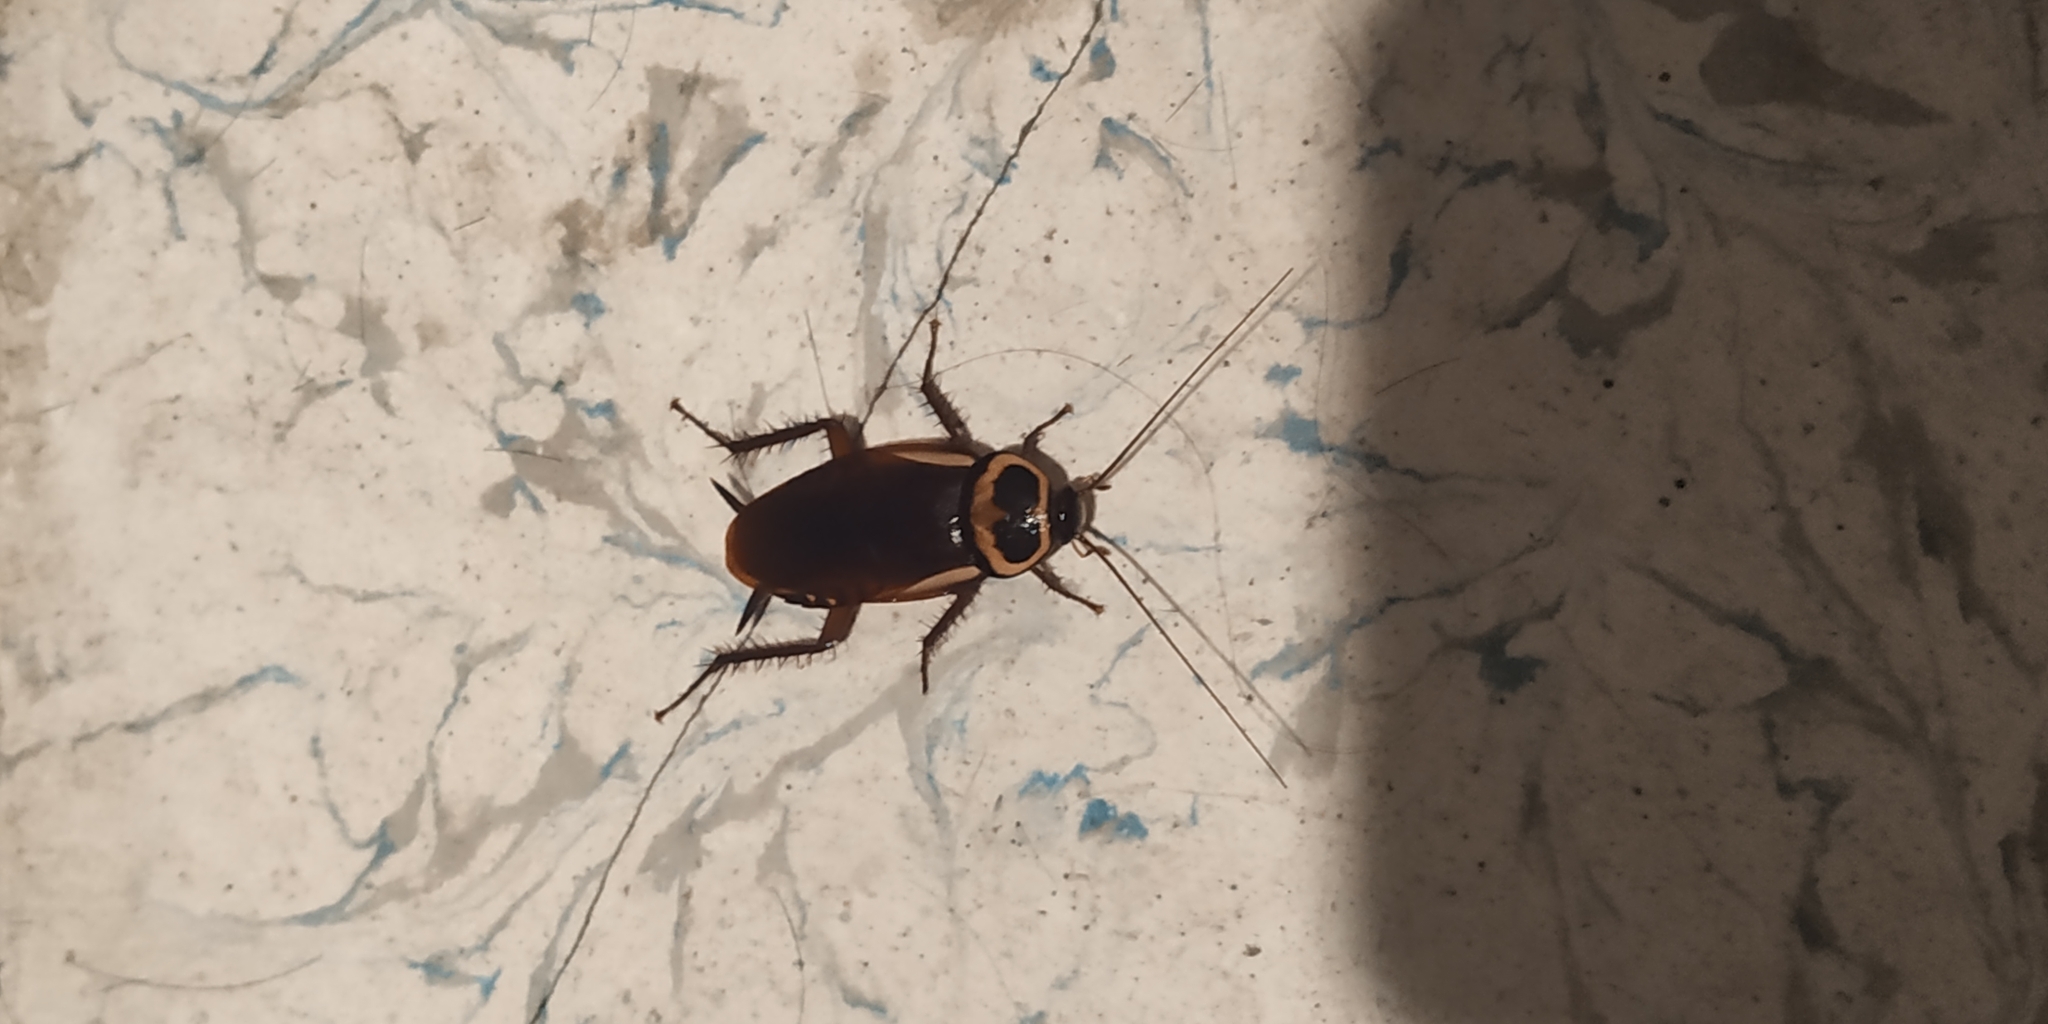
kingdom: Animalia
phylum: Arthropoda
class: Insecta
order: Blattodea
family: Blattidae
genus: Periplaneta
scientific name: Periplaneta australasiae
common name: Australian cockroach
